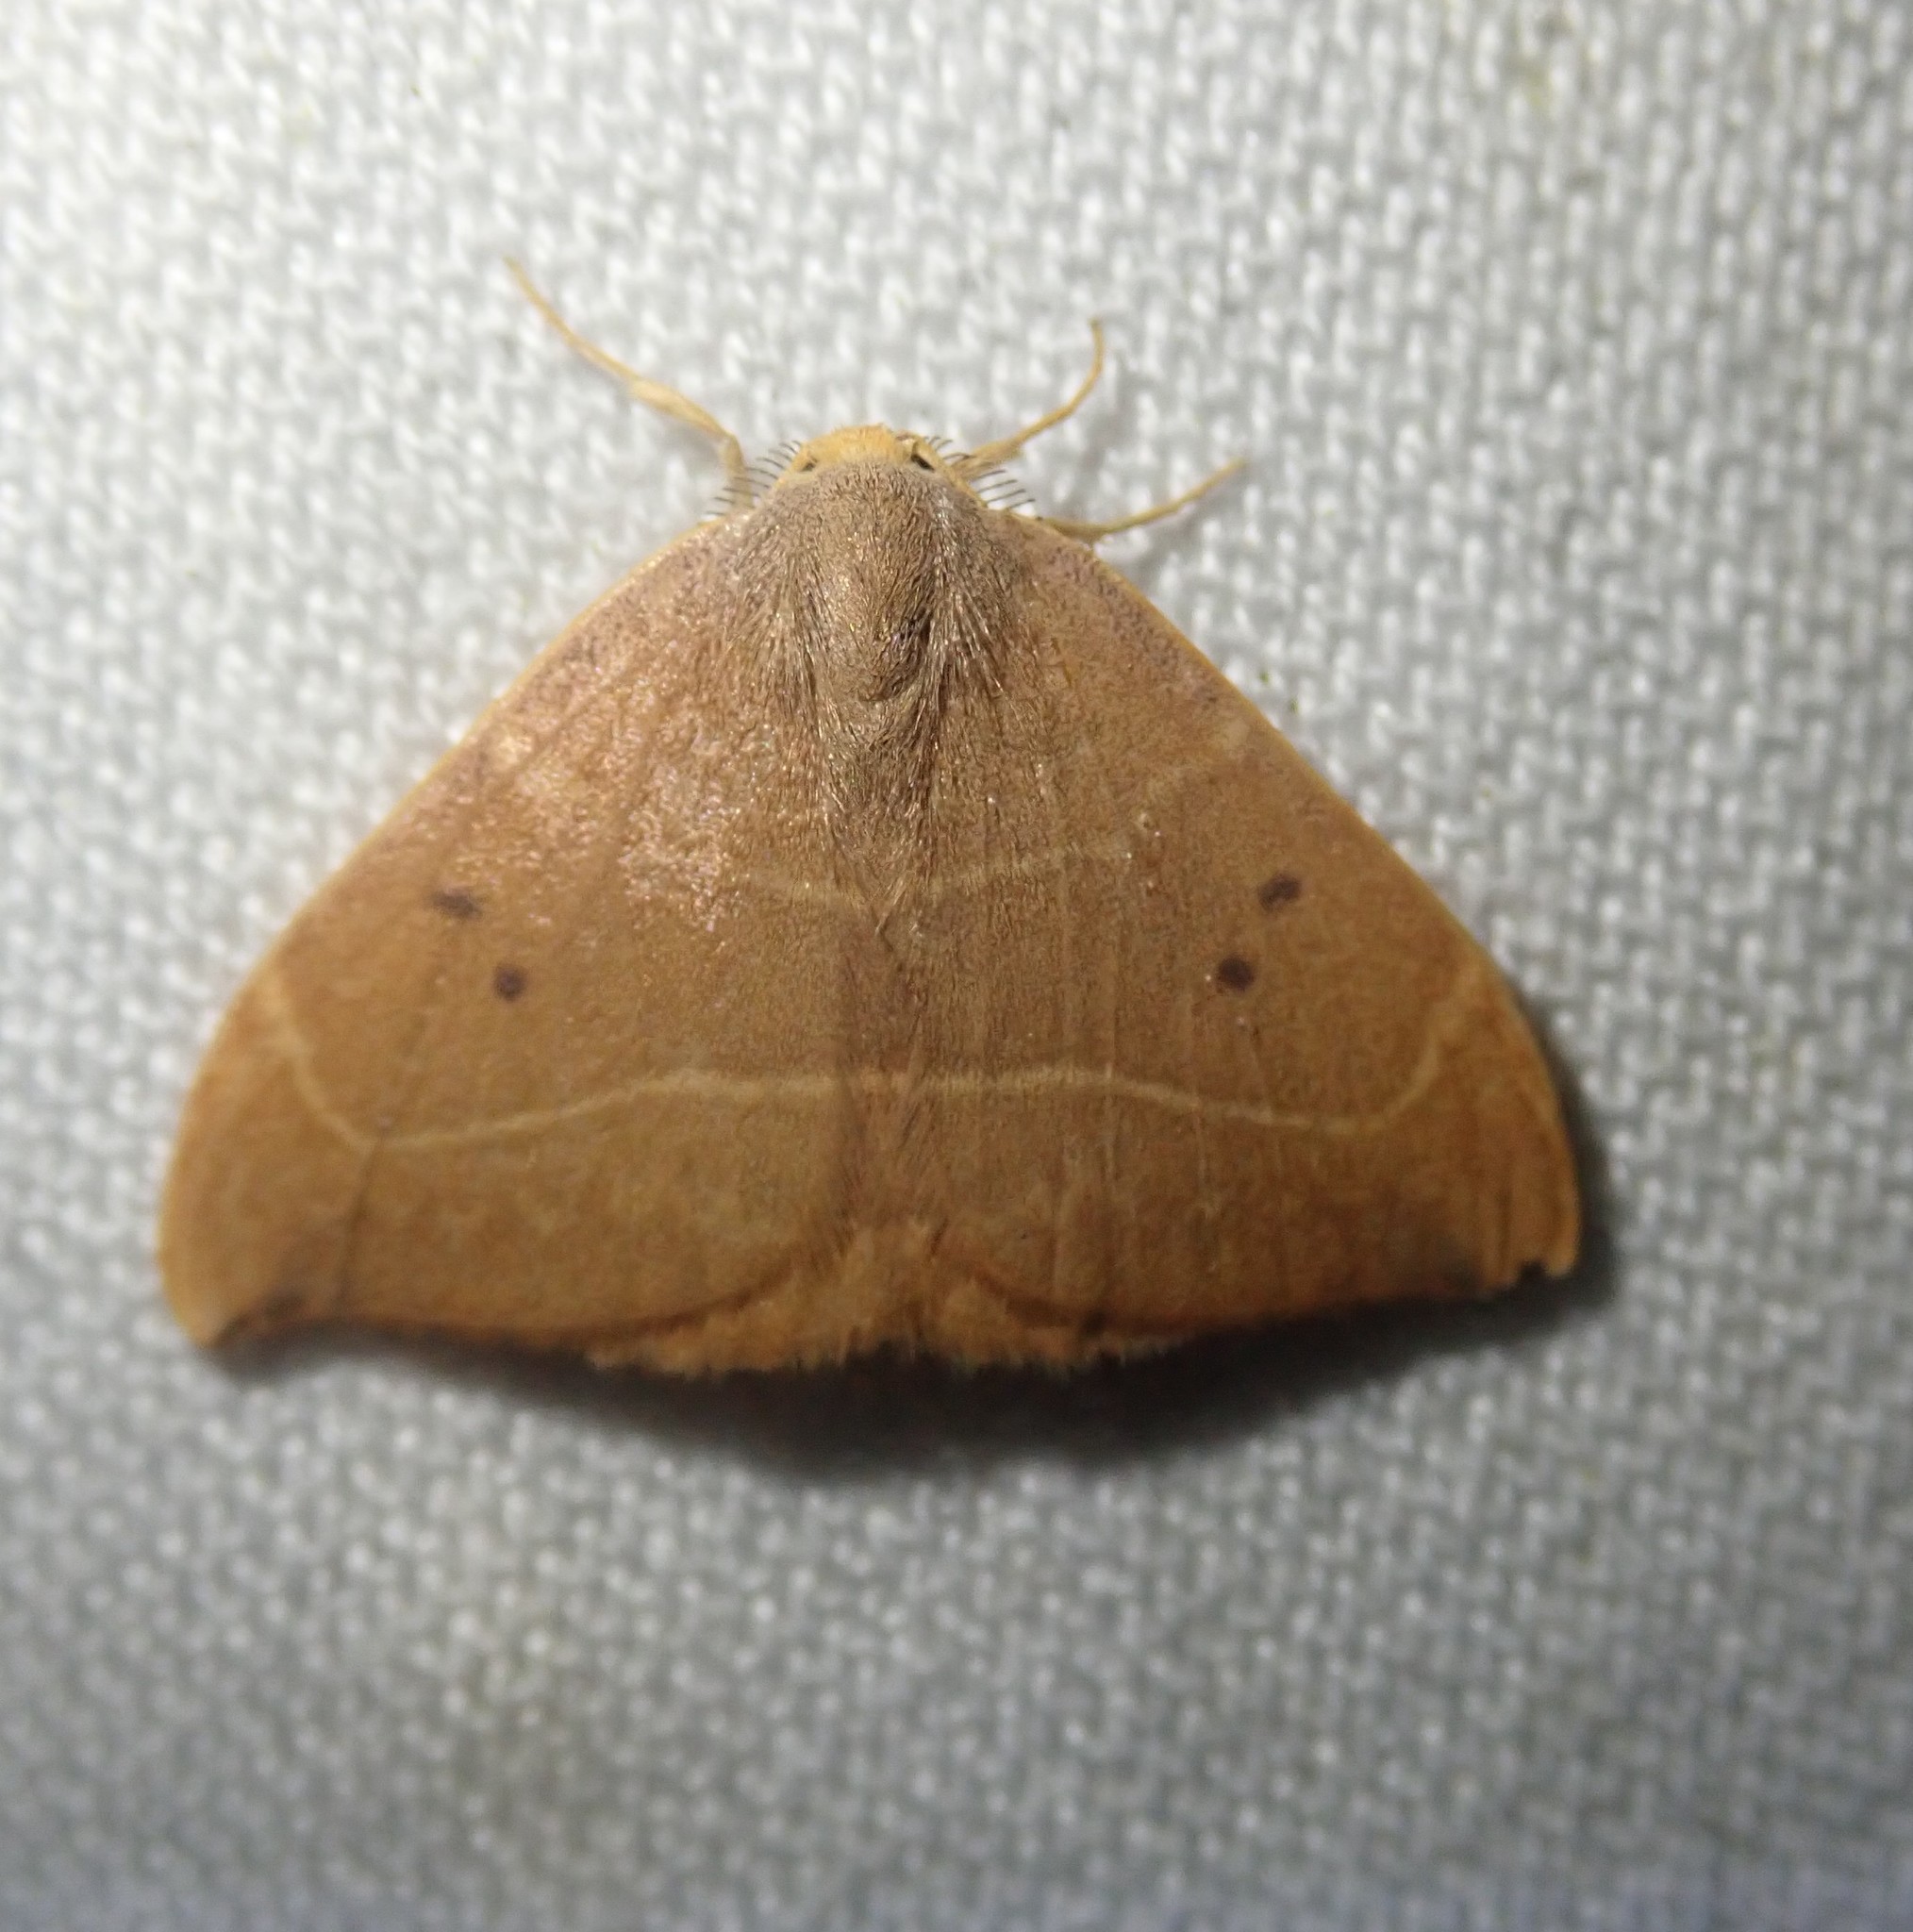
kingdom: Animalia
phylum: Arthropoda
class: Insecta
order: Lepidoptera
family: Drepanidae
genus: Watsonalla
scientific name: Watsonalla binaria
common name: Oak hook-tip
